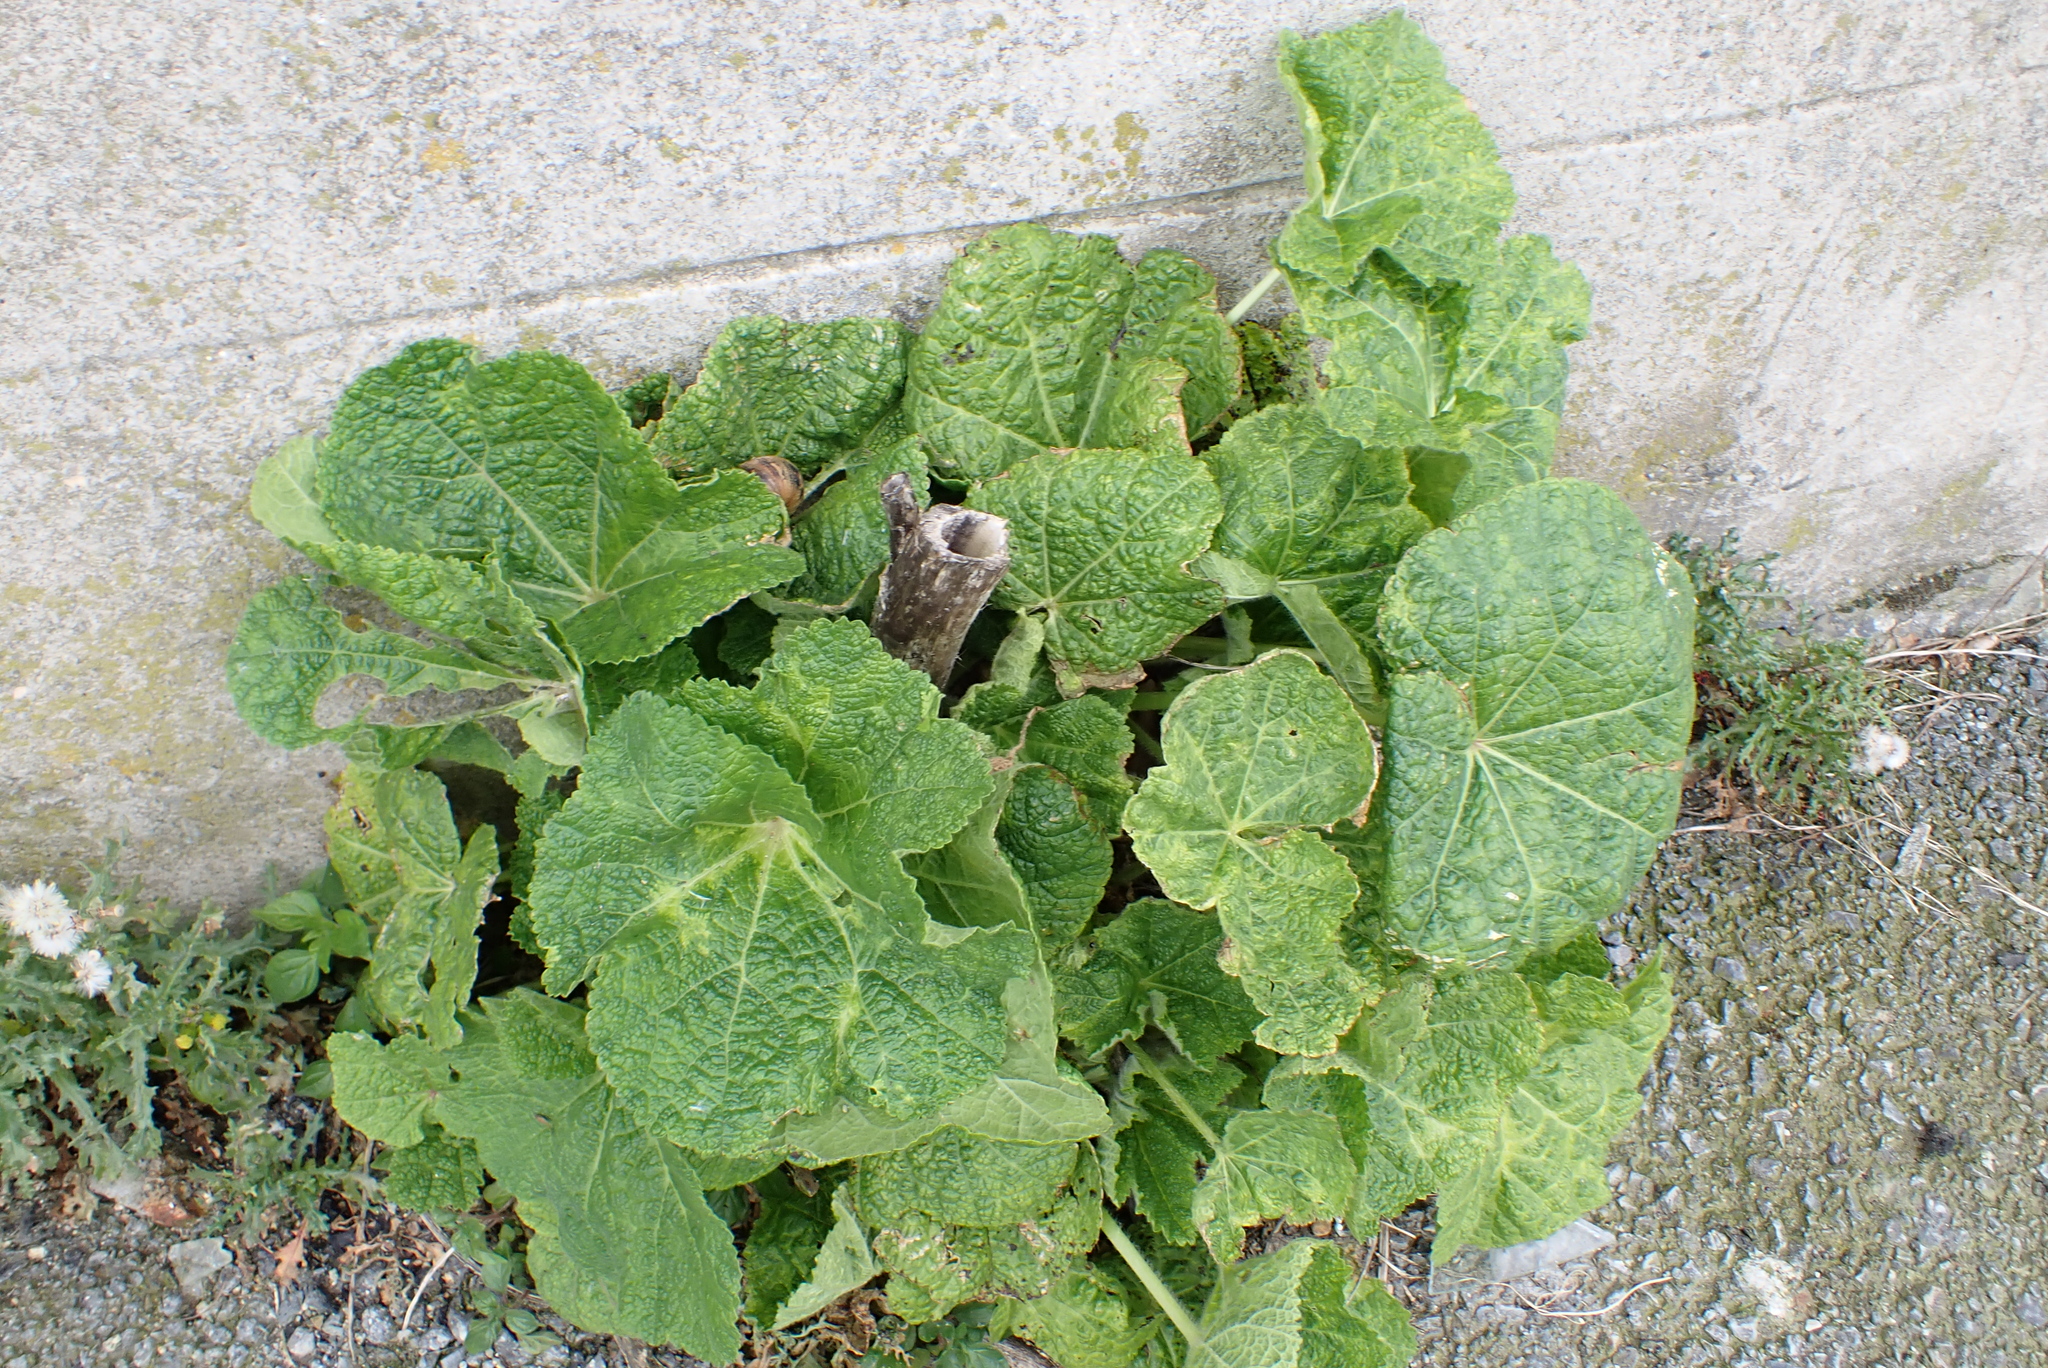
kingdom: Plantae
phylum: Tracheophyta
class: Magnoliopsida
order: Malvales
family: Malvaceae
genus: Alcea
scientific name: Alcea rosea
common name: Hollyhock
